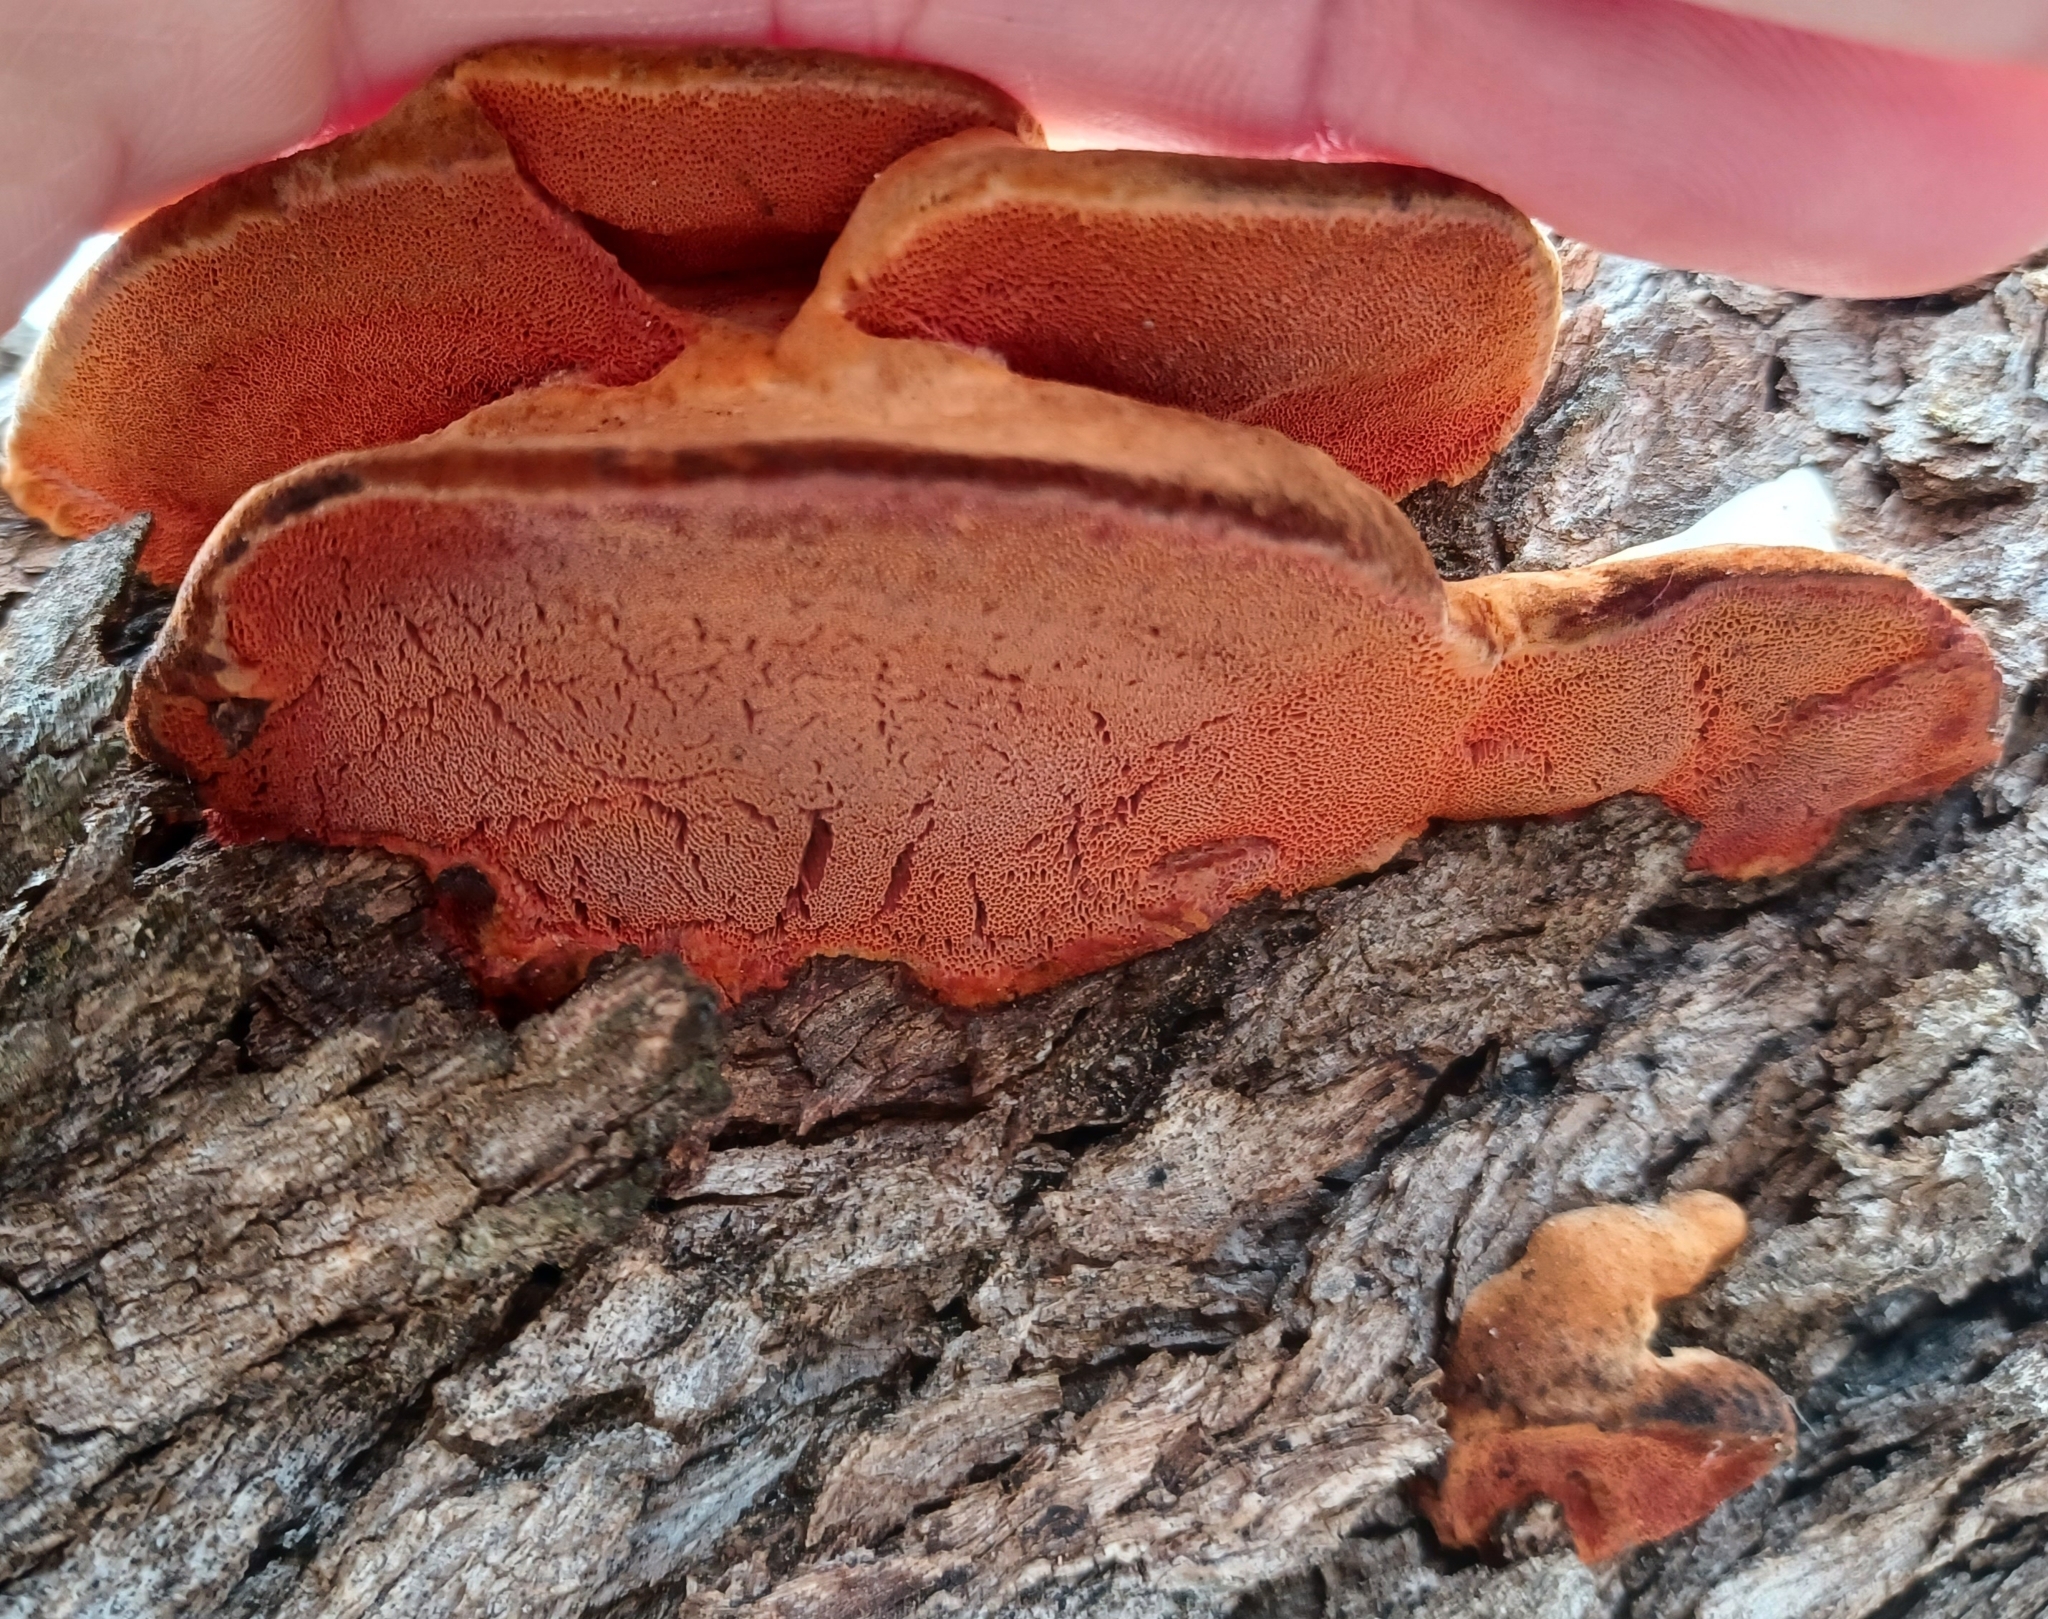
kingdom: Fungi
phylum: Basidiomycota
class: Agaricomycetes
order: Polyporales
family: Polyporaceae
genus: Trametes
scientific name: Trametes coccinea
